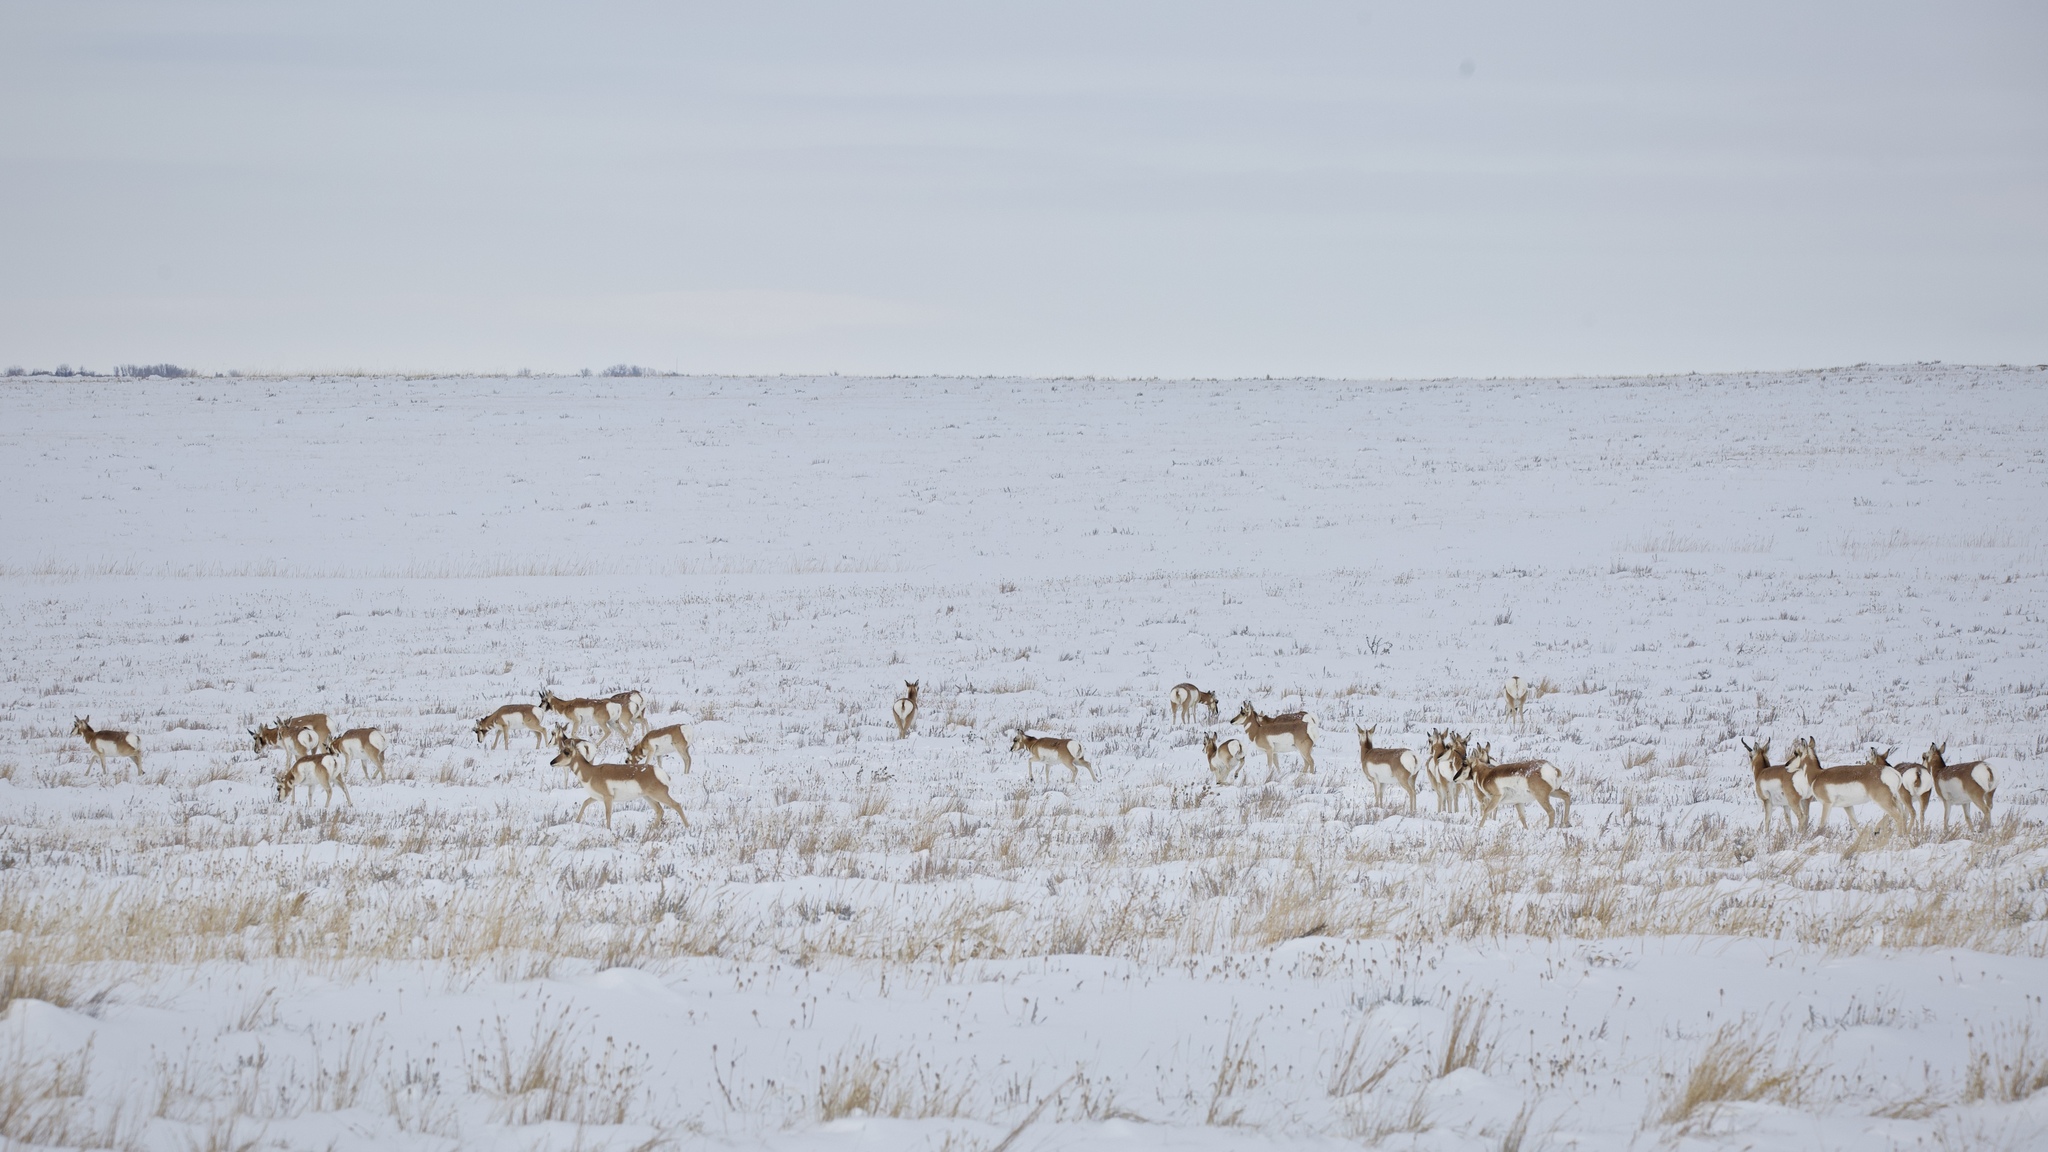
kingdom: Animalia
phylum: Chordata
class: Mammalia
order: Artiodactyla
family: Antilocapridae
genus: Antilocapra
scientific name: Antilocapra americana
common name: Pronghorn
